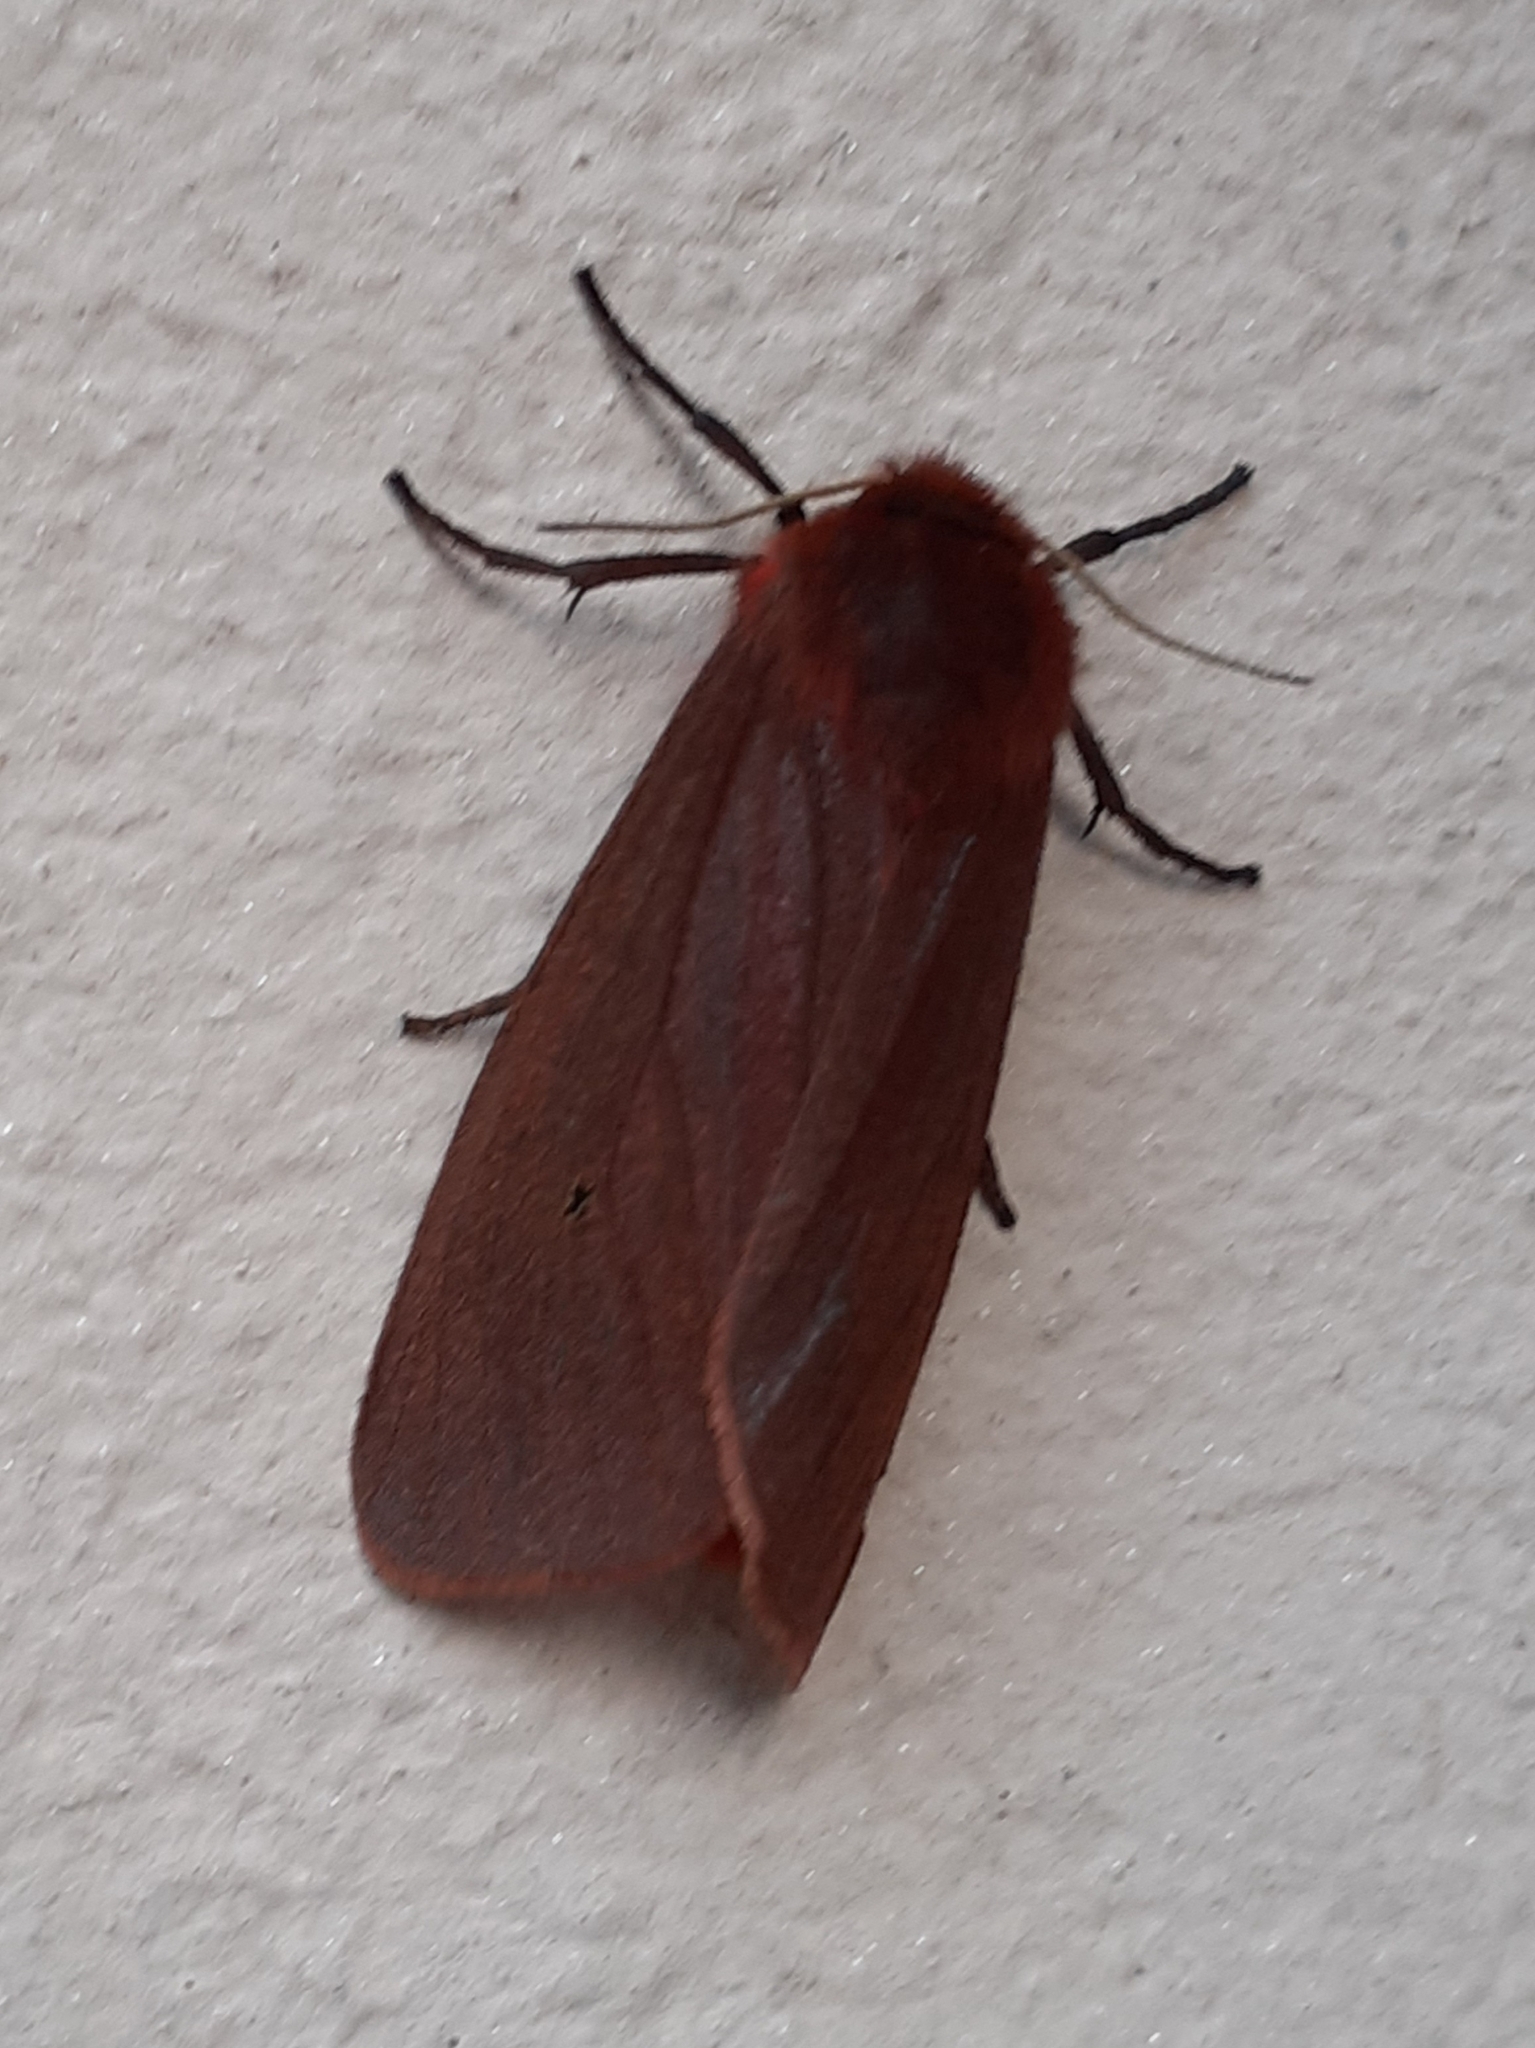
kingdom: Animalia
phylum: Arthropoda
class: Insecta
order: Lepidoptera
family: Erebidae
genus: Phragmatobia
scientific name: Phragmatobia fuliginosa
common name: Ruby tiger
